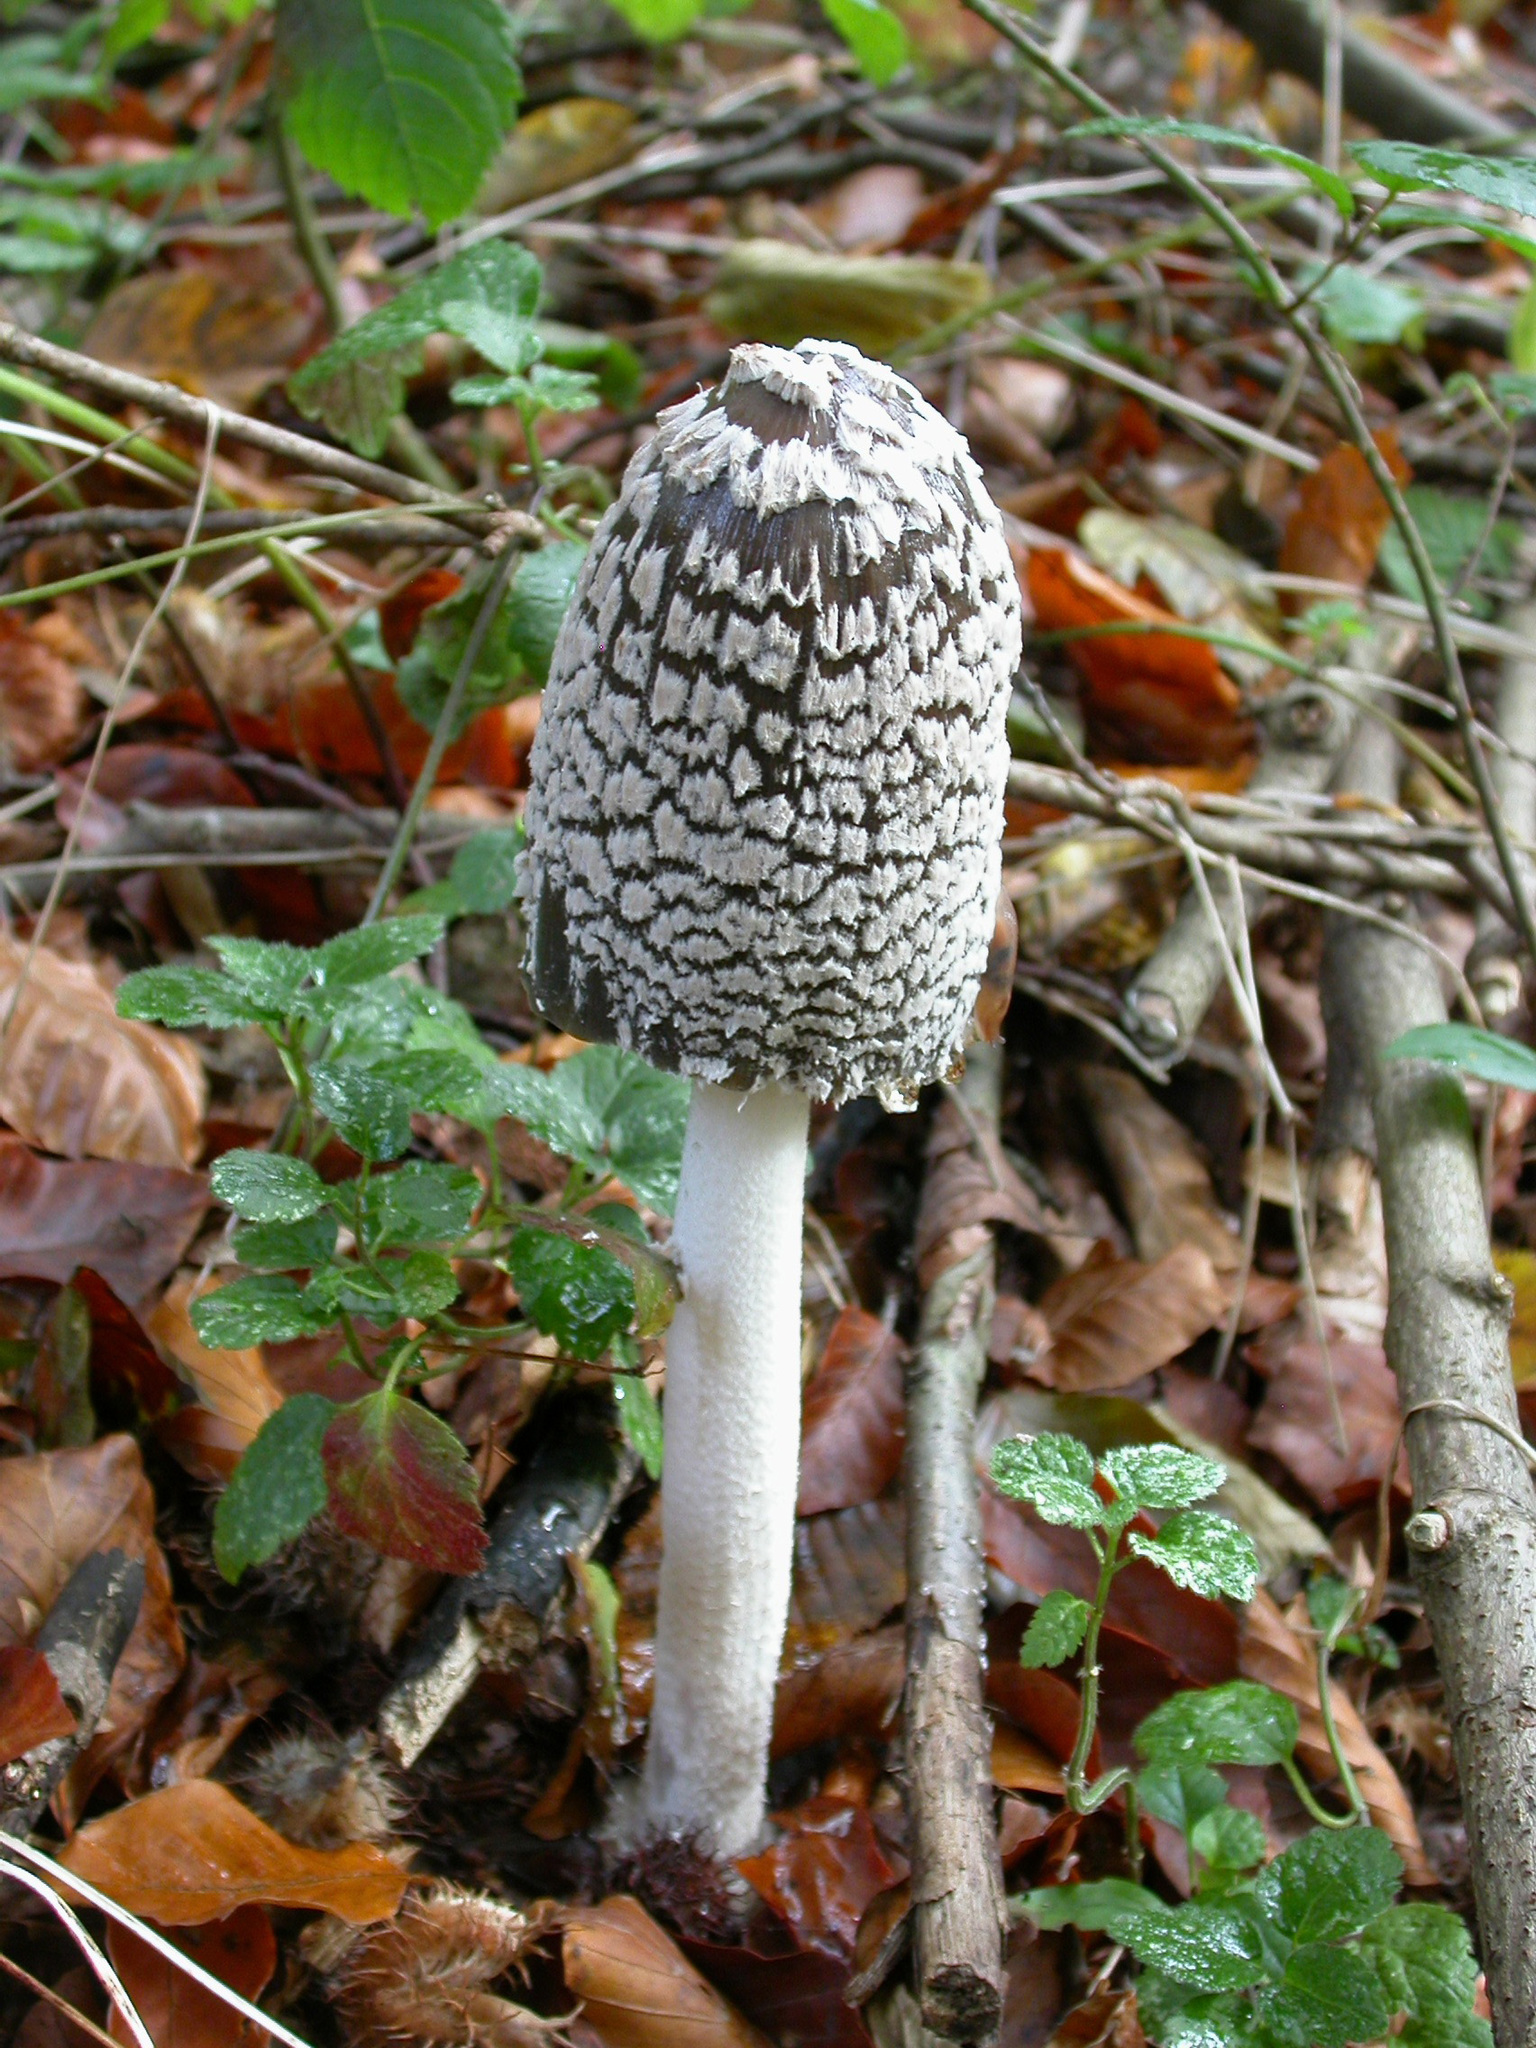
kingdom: Fungi
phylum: Basidiomycota
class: Agaricomycetes
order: Agaricales
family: Psathyrellaceae
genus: Coprinopsis
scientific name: Coprinopsis picacea
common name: Magpie inkcap
